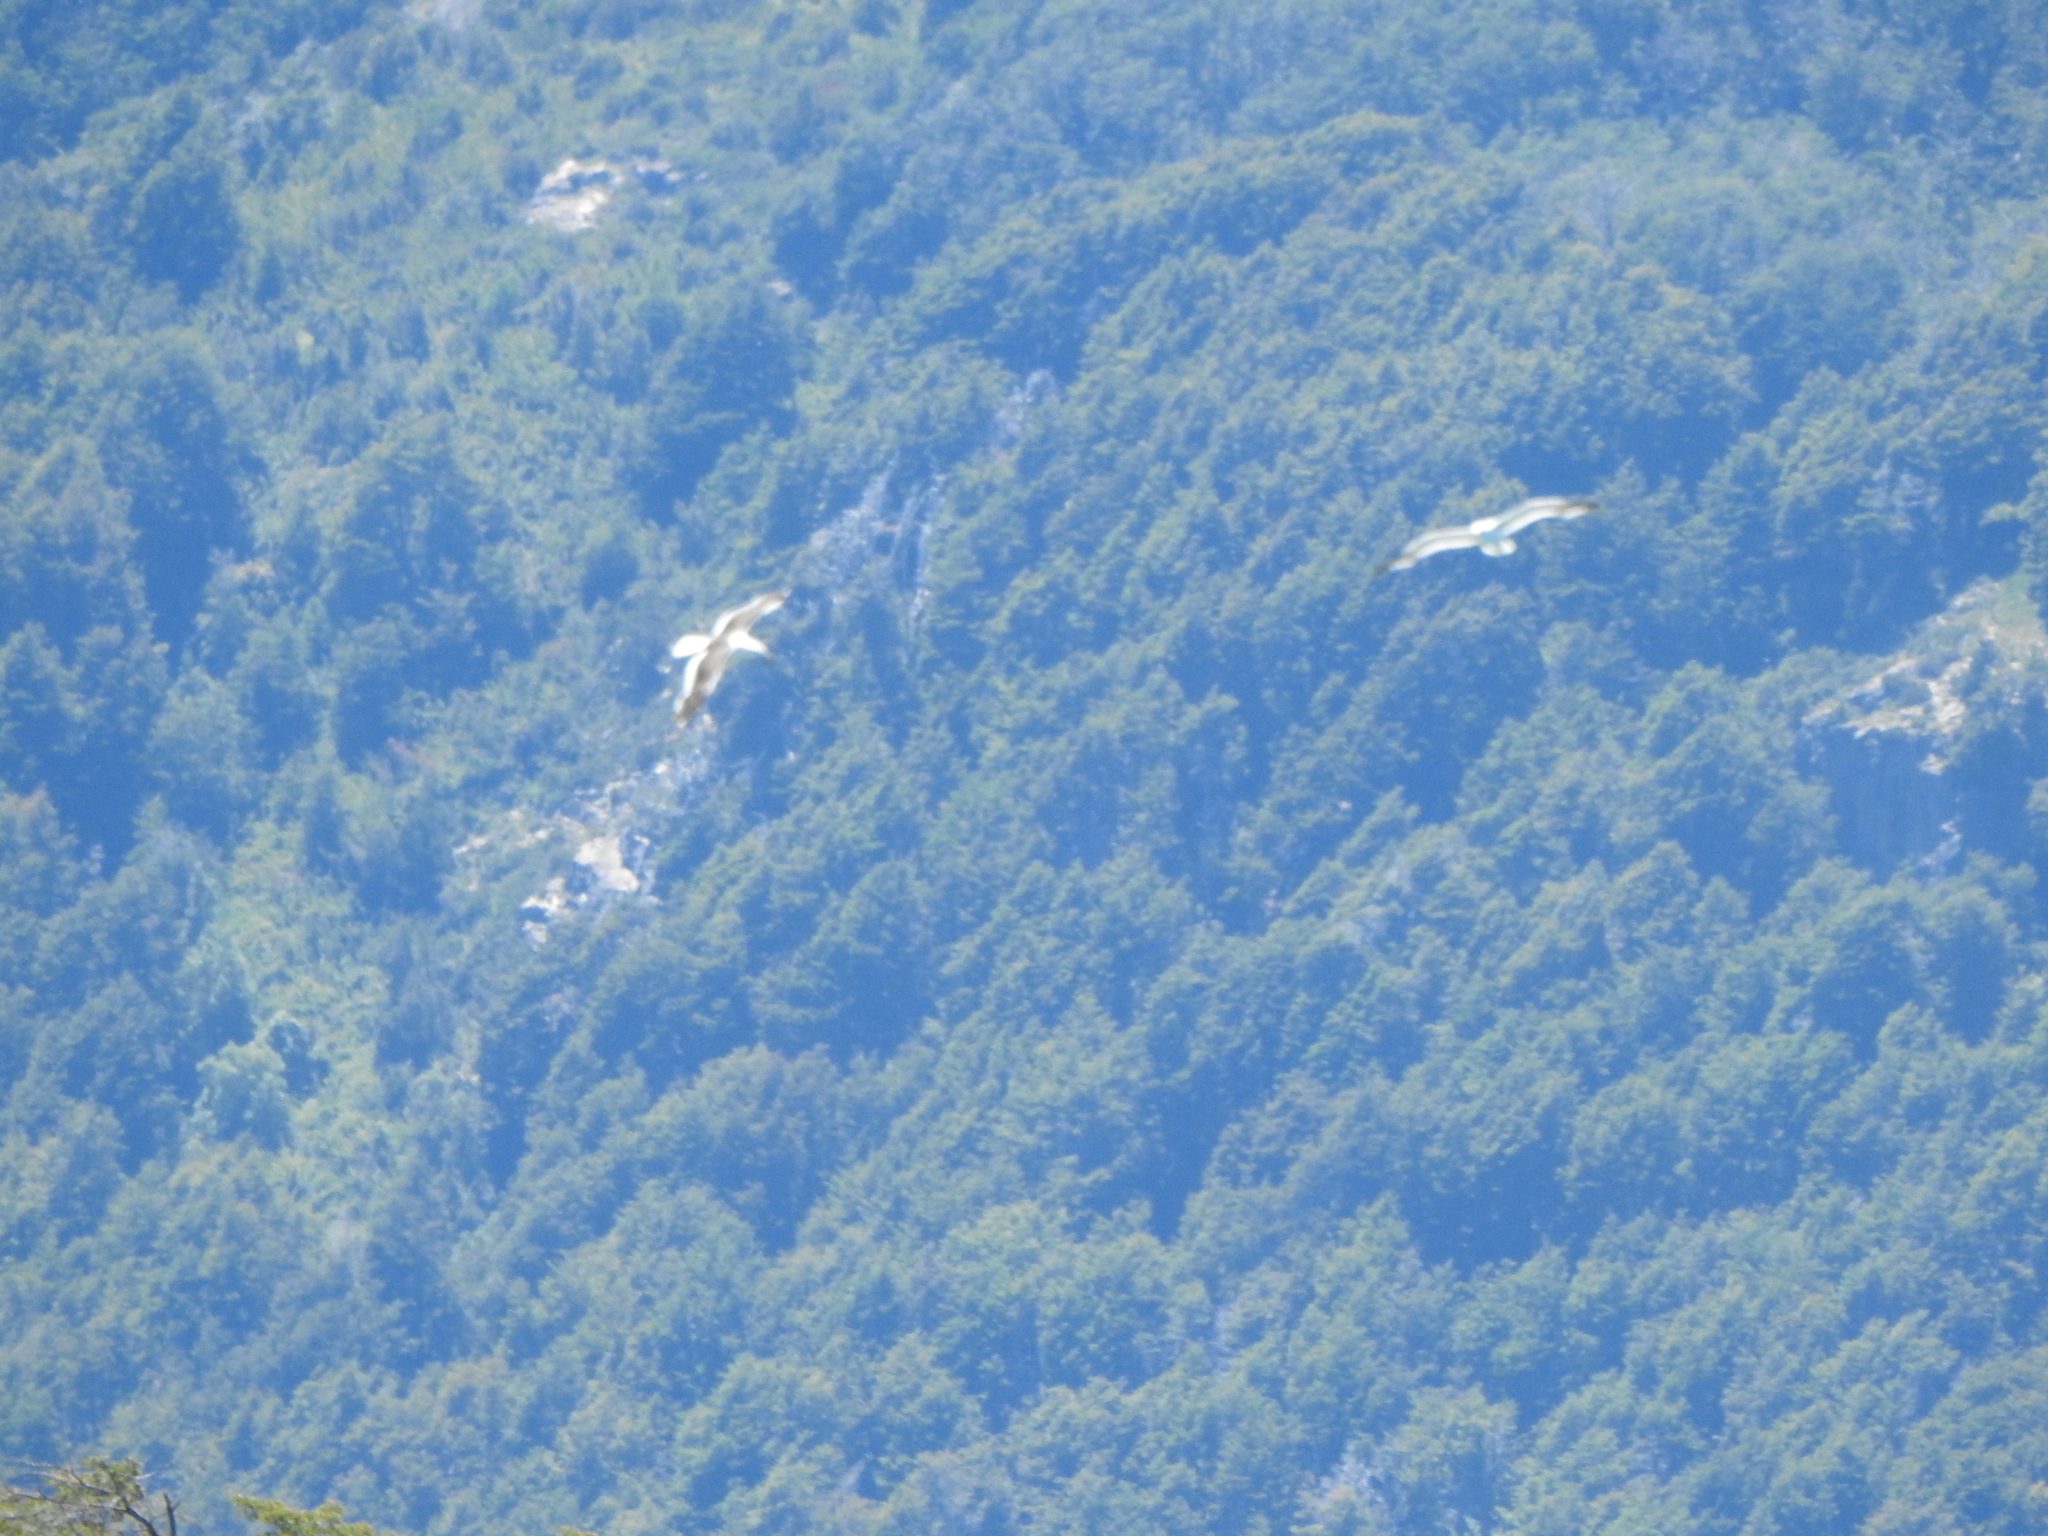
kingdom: Animalia
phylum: Chordata
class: Aves
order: Charadriiformes
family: Laridae
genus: Larus
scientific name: Larus dominicanus
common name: Kelp gull
